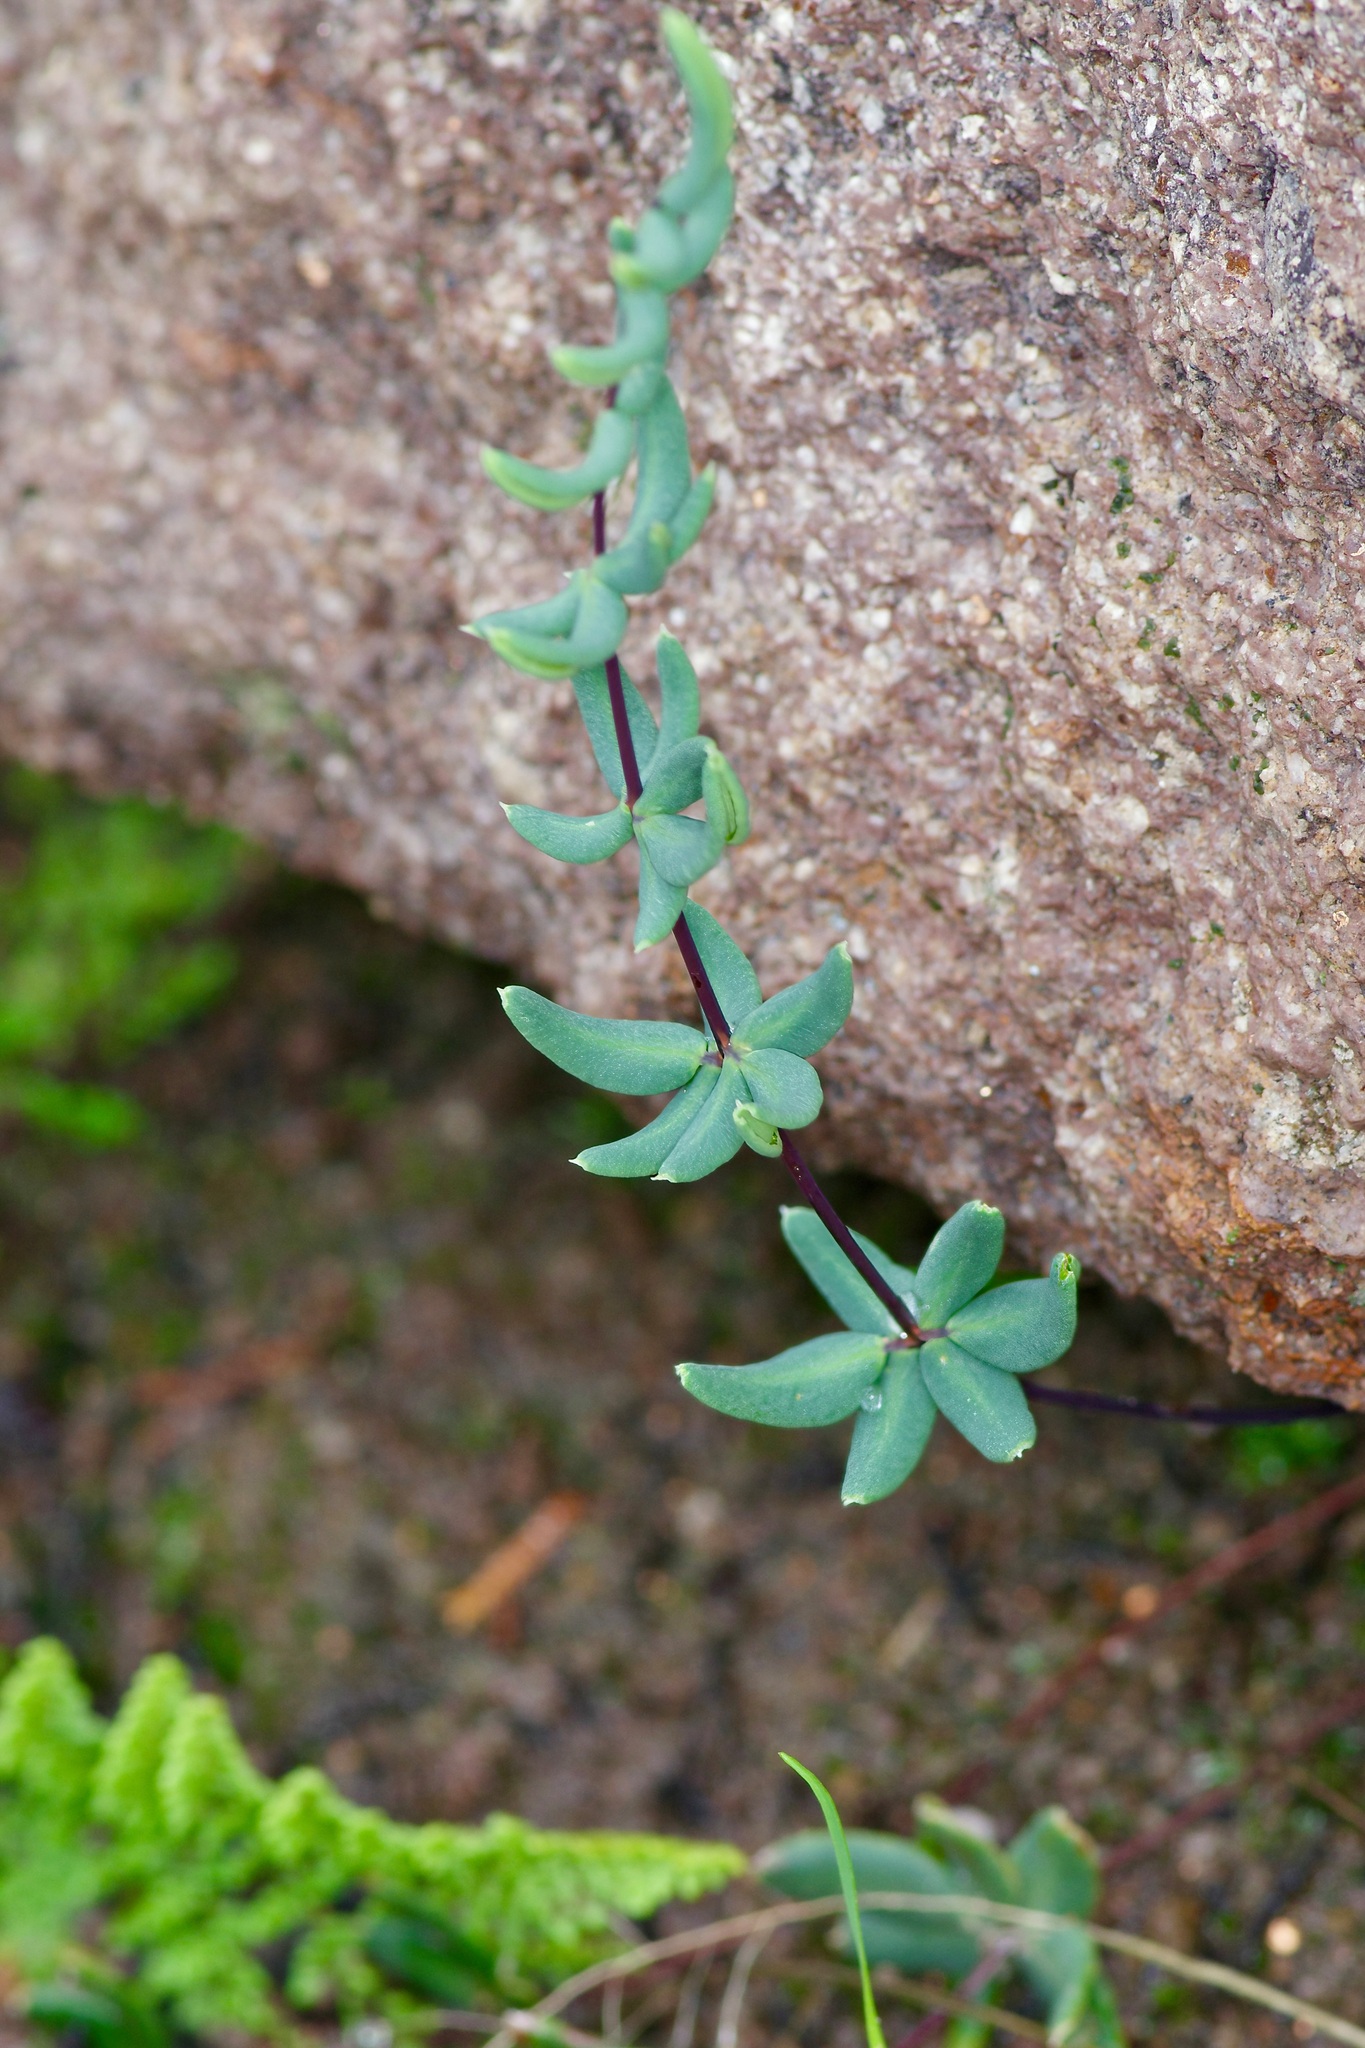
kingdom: Plantae
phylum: Tracheophyta
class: Polypodiopsida
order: Polypodiales
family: Pteridaceae
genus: Pellaea
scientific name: Pellaea wrightiana
